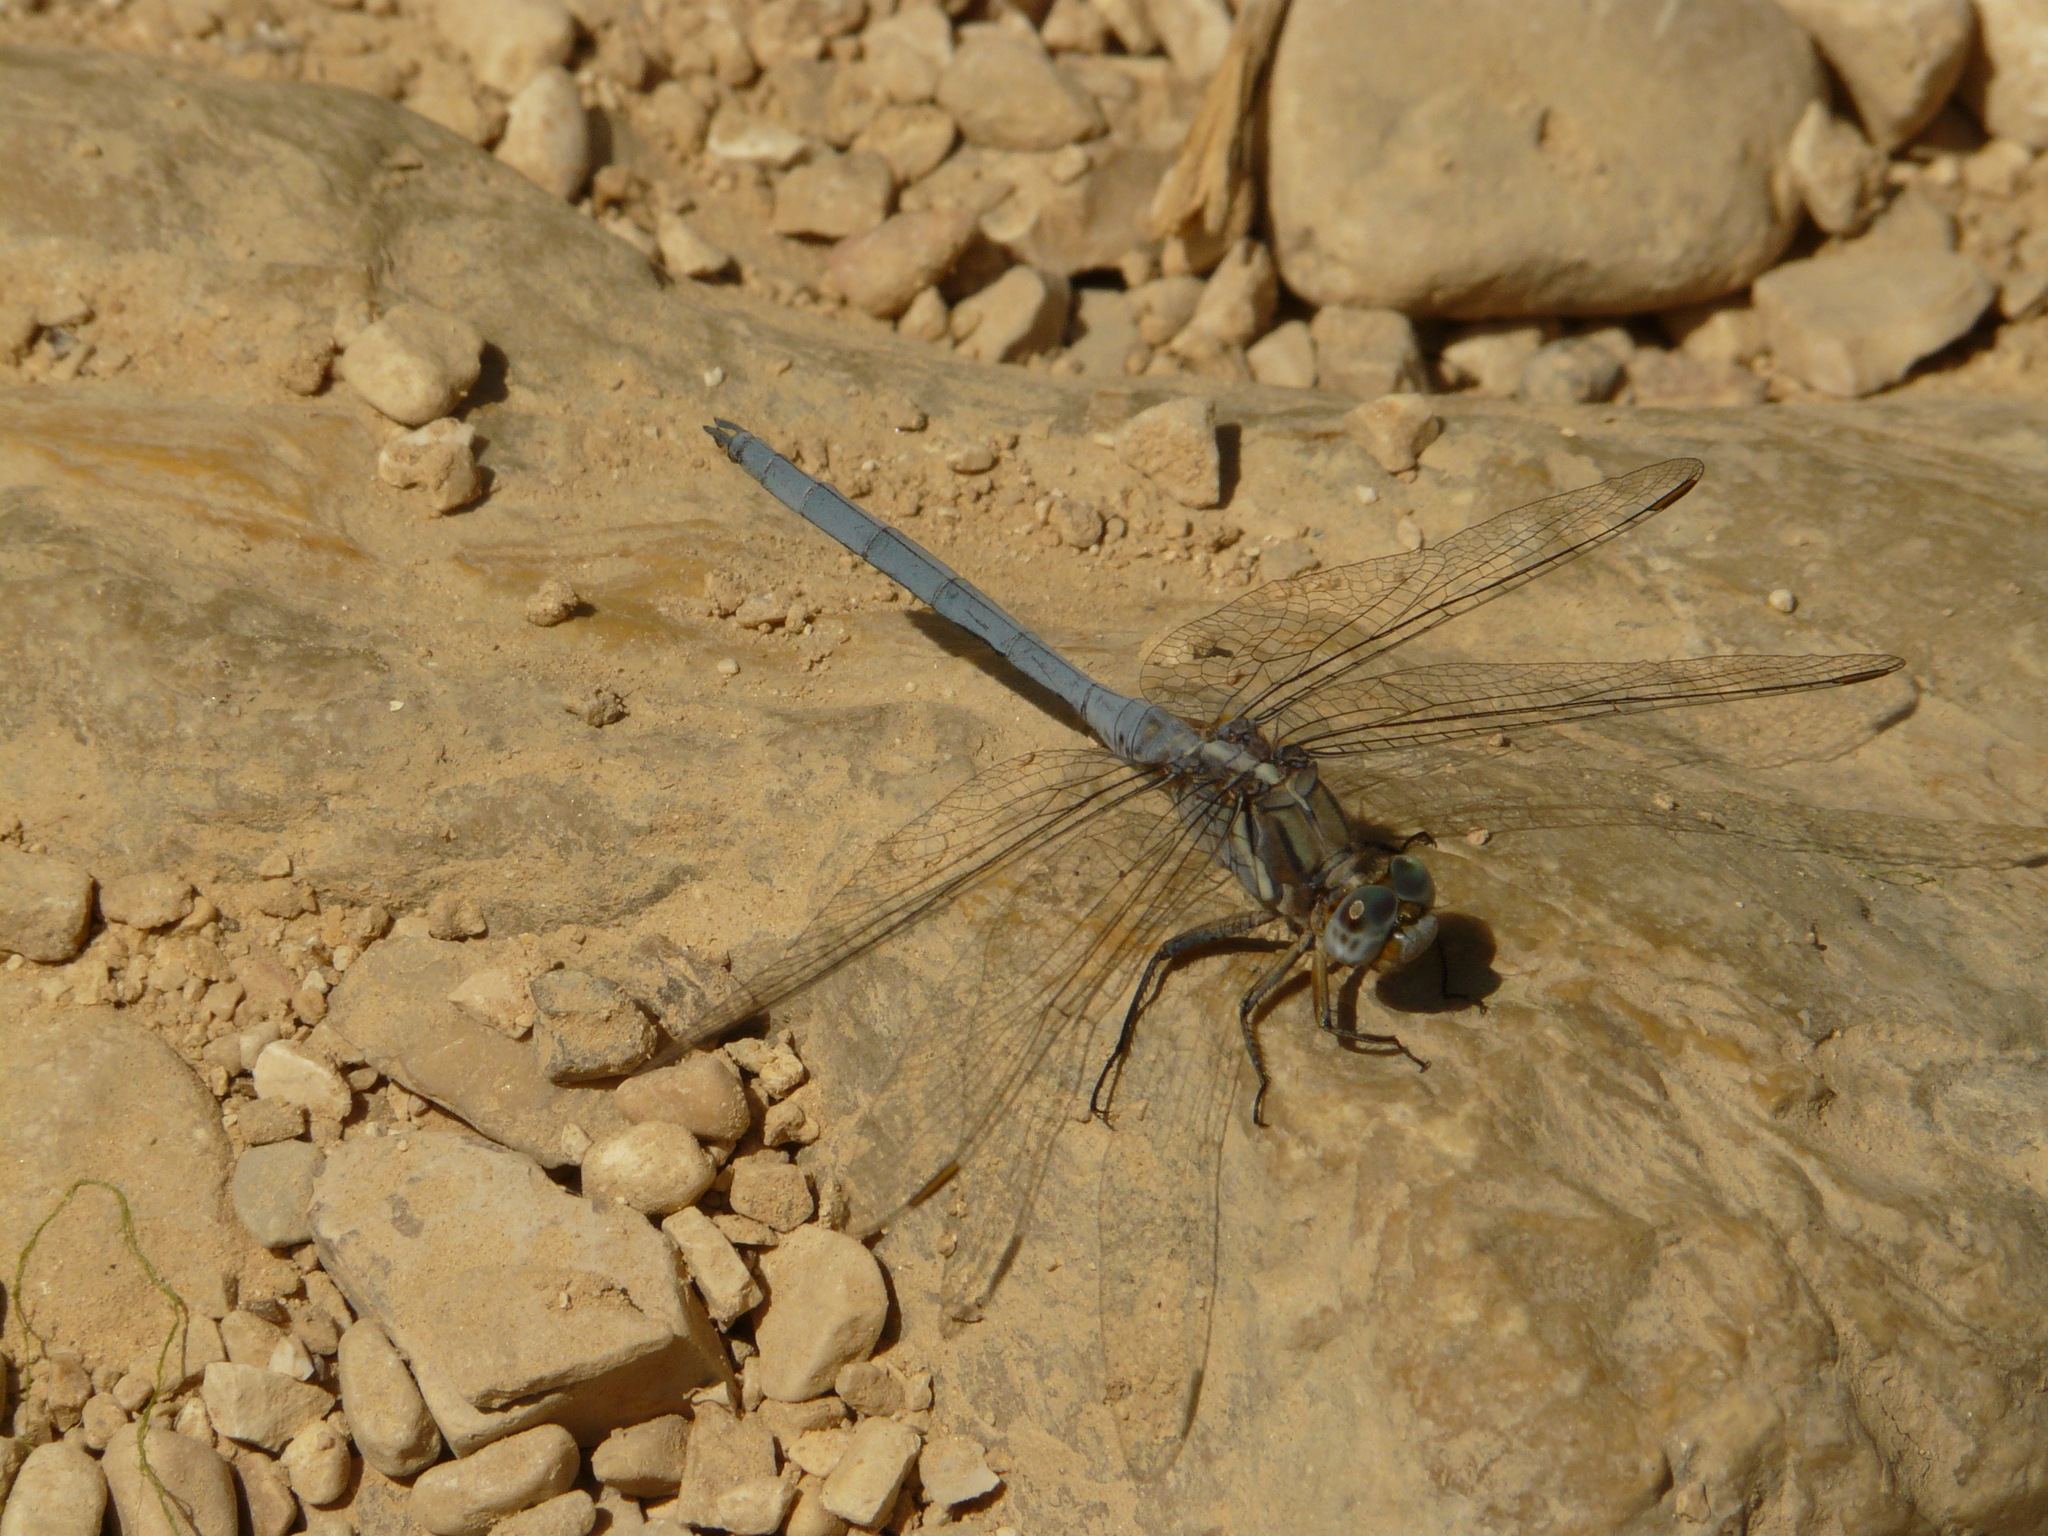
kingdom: Animalia
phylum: Arthropoda
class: Insecta
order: Odonata
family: Libellulidae
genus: Orthetrum
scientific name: Orthetrum chrysostigma
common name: Epaulet skimmer
